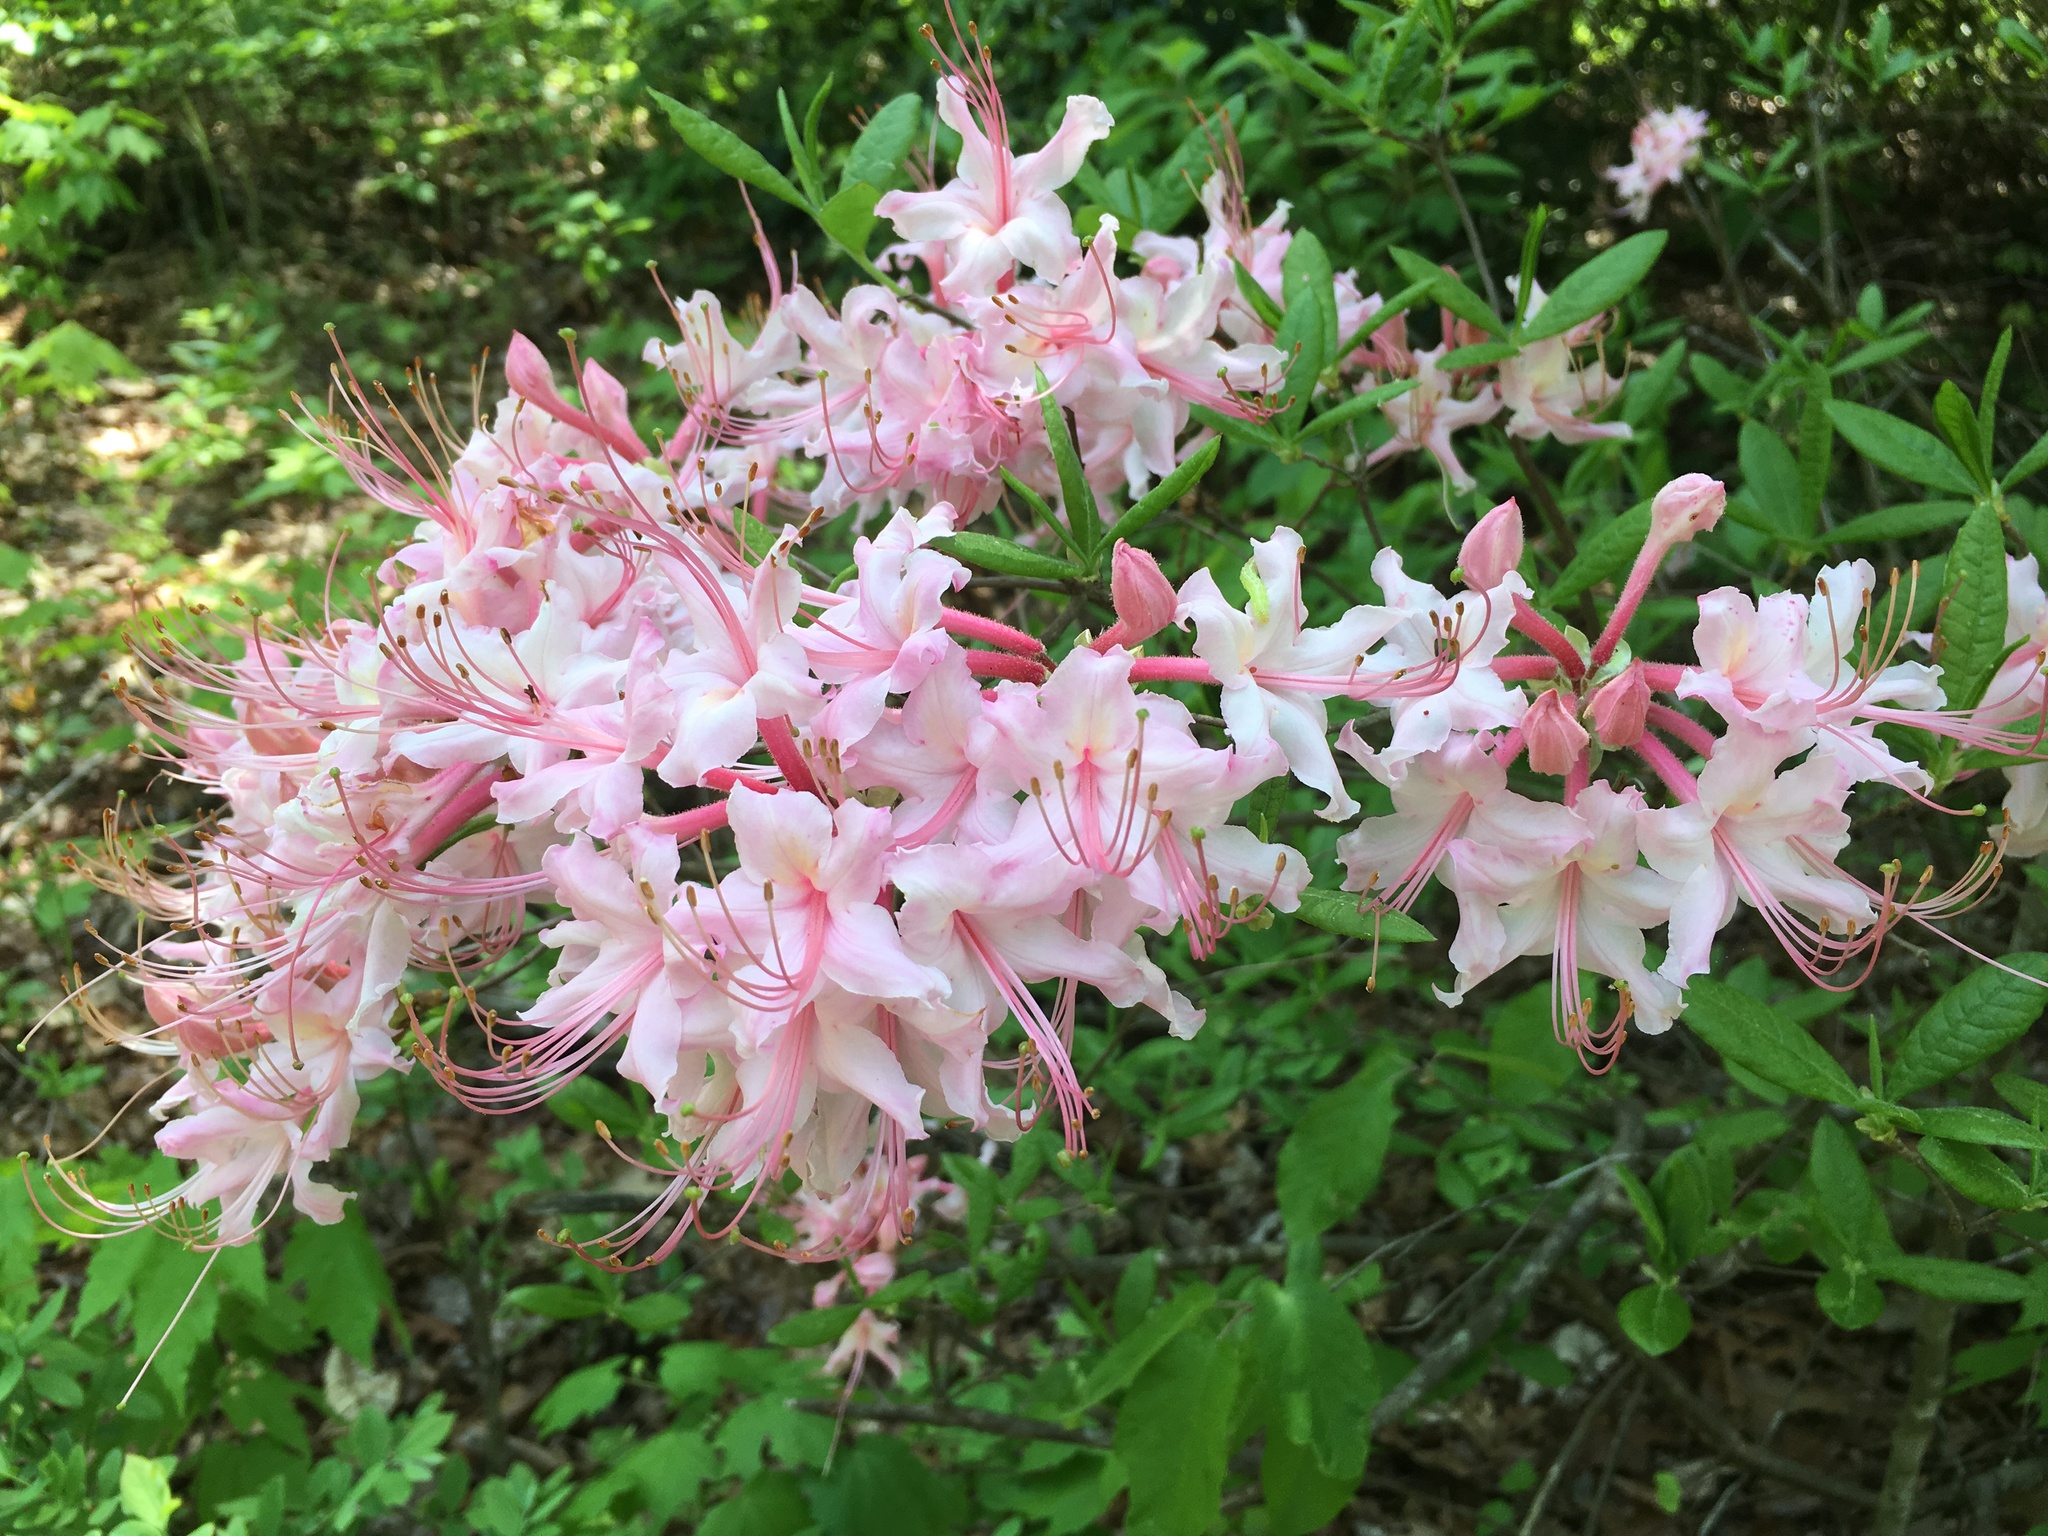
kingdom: Plantae
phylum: Tracheophyta
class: Magnoliopsida
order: Ericales
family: Ericaceae
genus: Rhododendron
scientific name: Rhododendron canescens
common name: Mountain azalea
